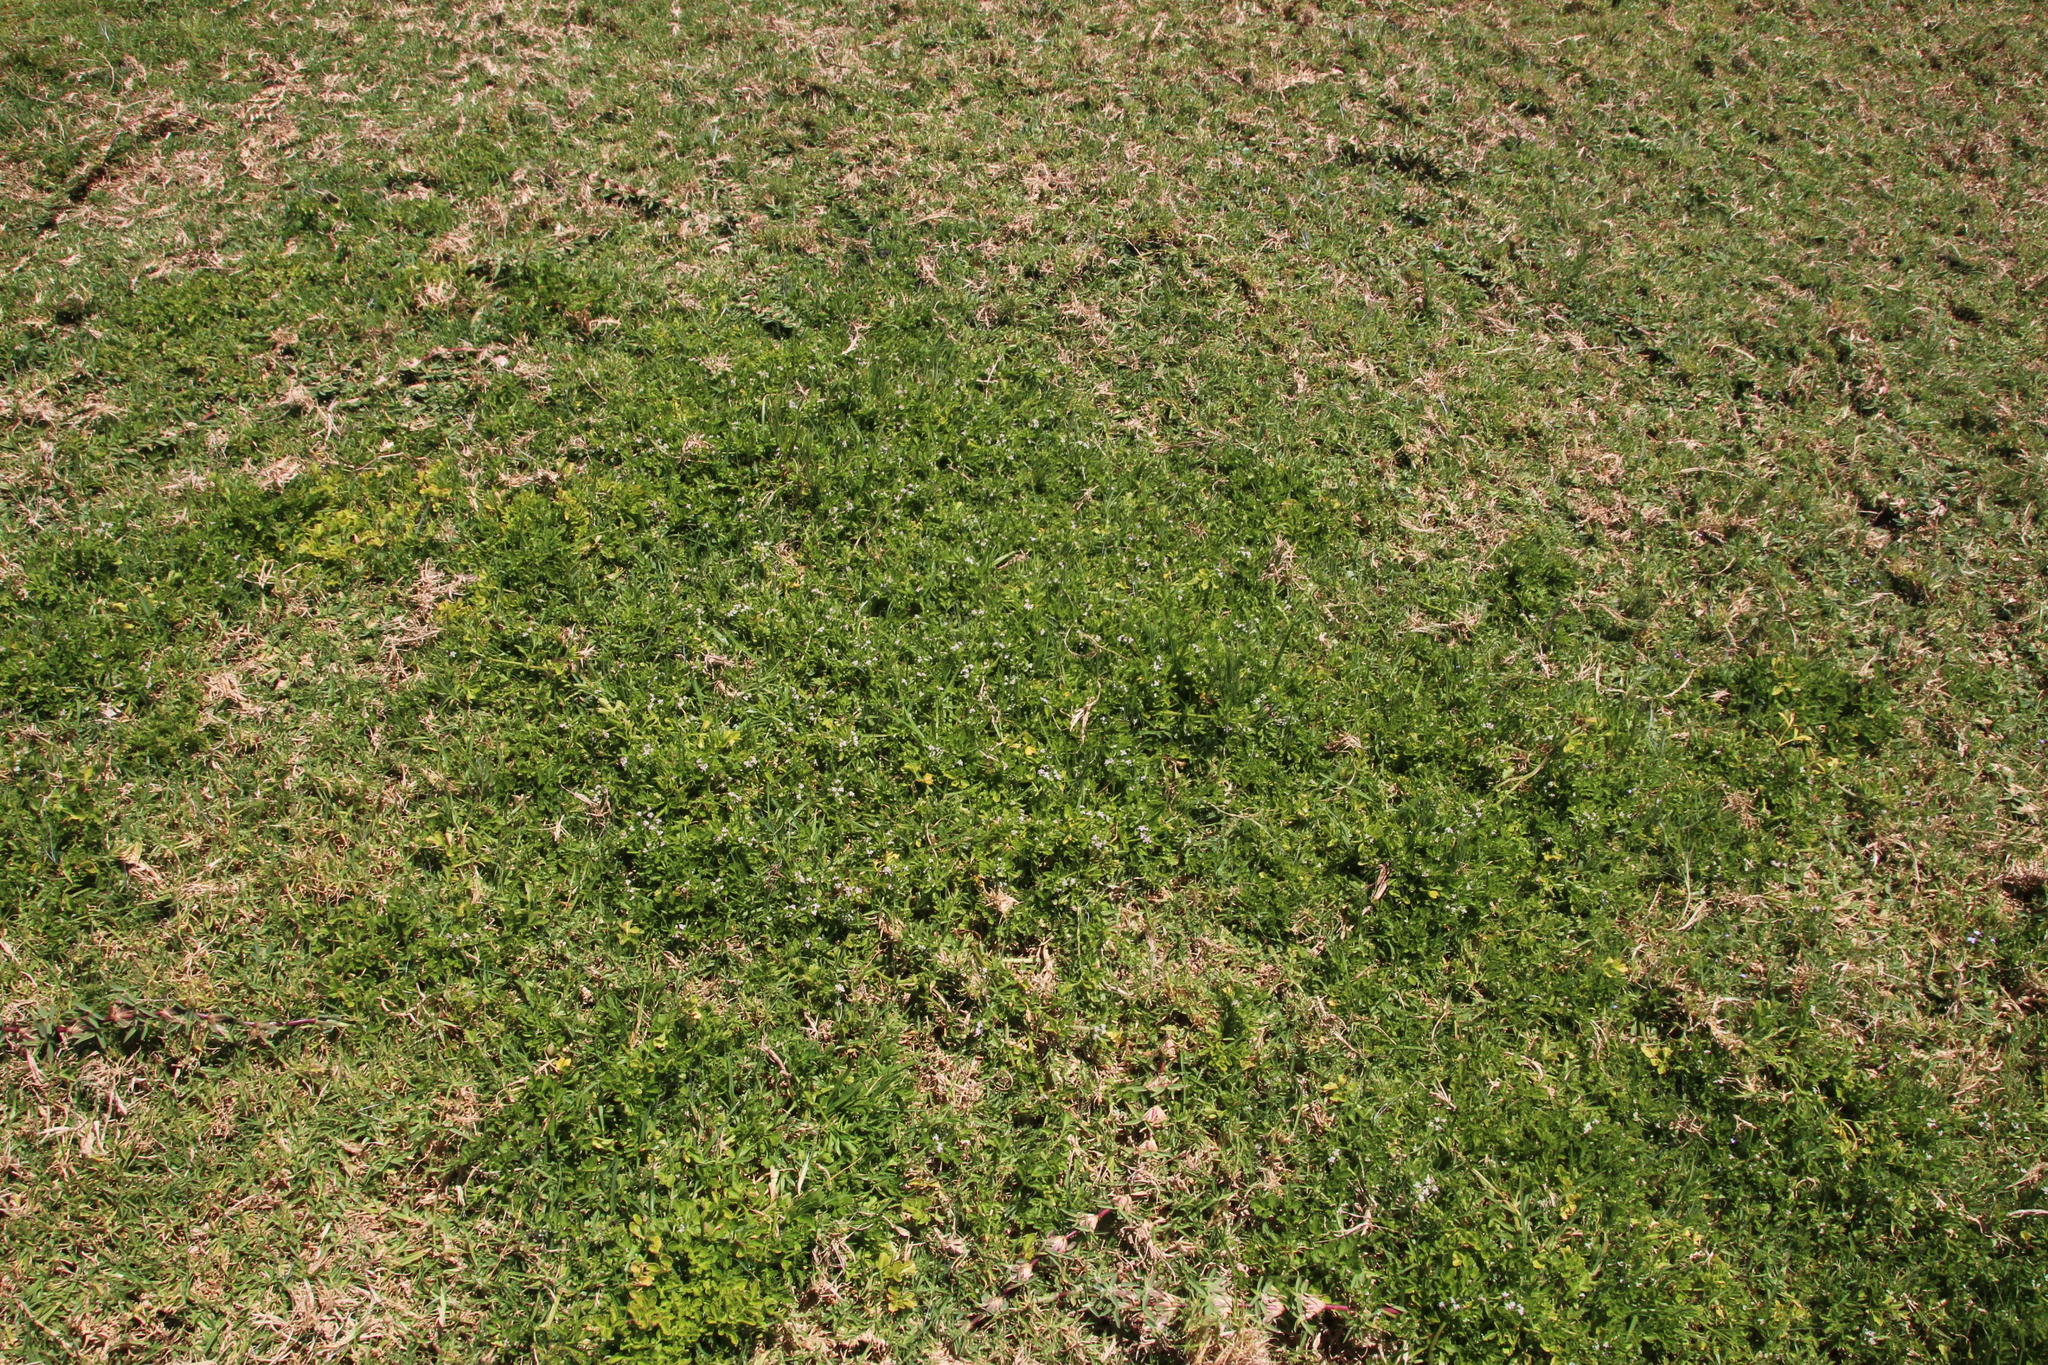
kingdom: Plantae
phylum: Tracheophyta
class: Magnoliopsida
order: Apiales
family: Apiaceae
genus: Apium
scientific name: Apium decumbens
